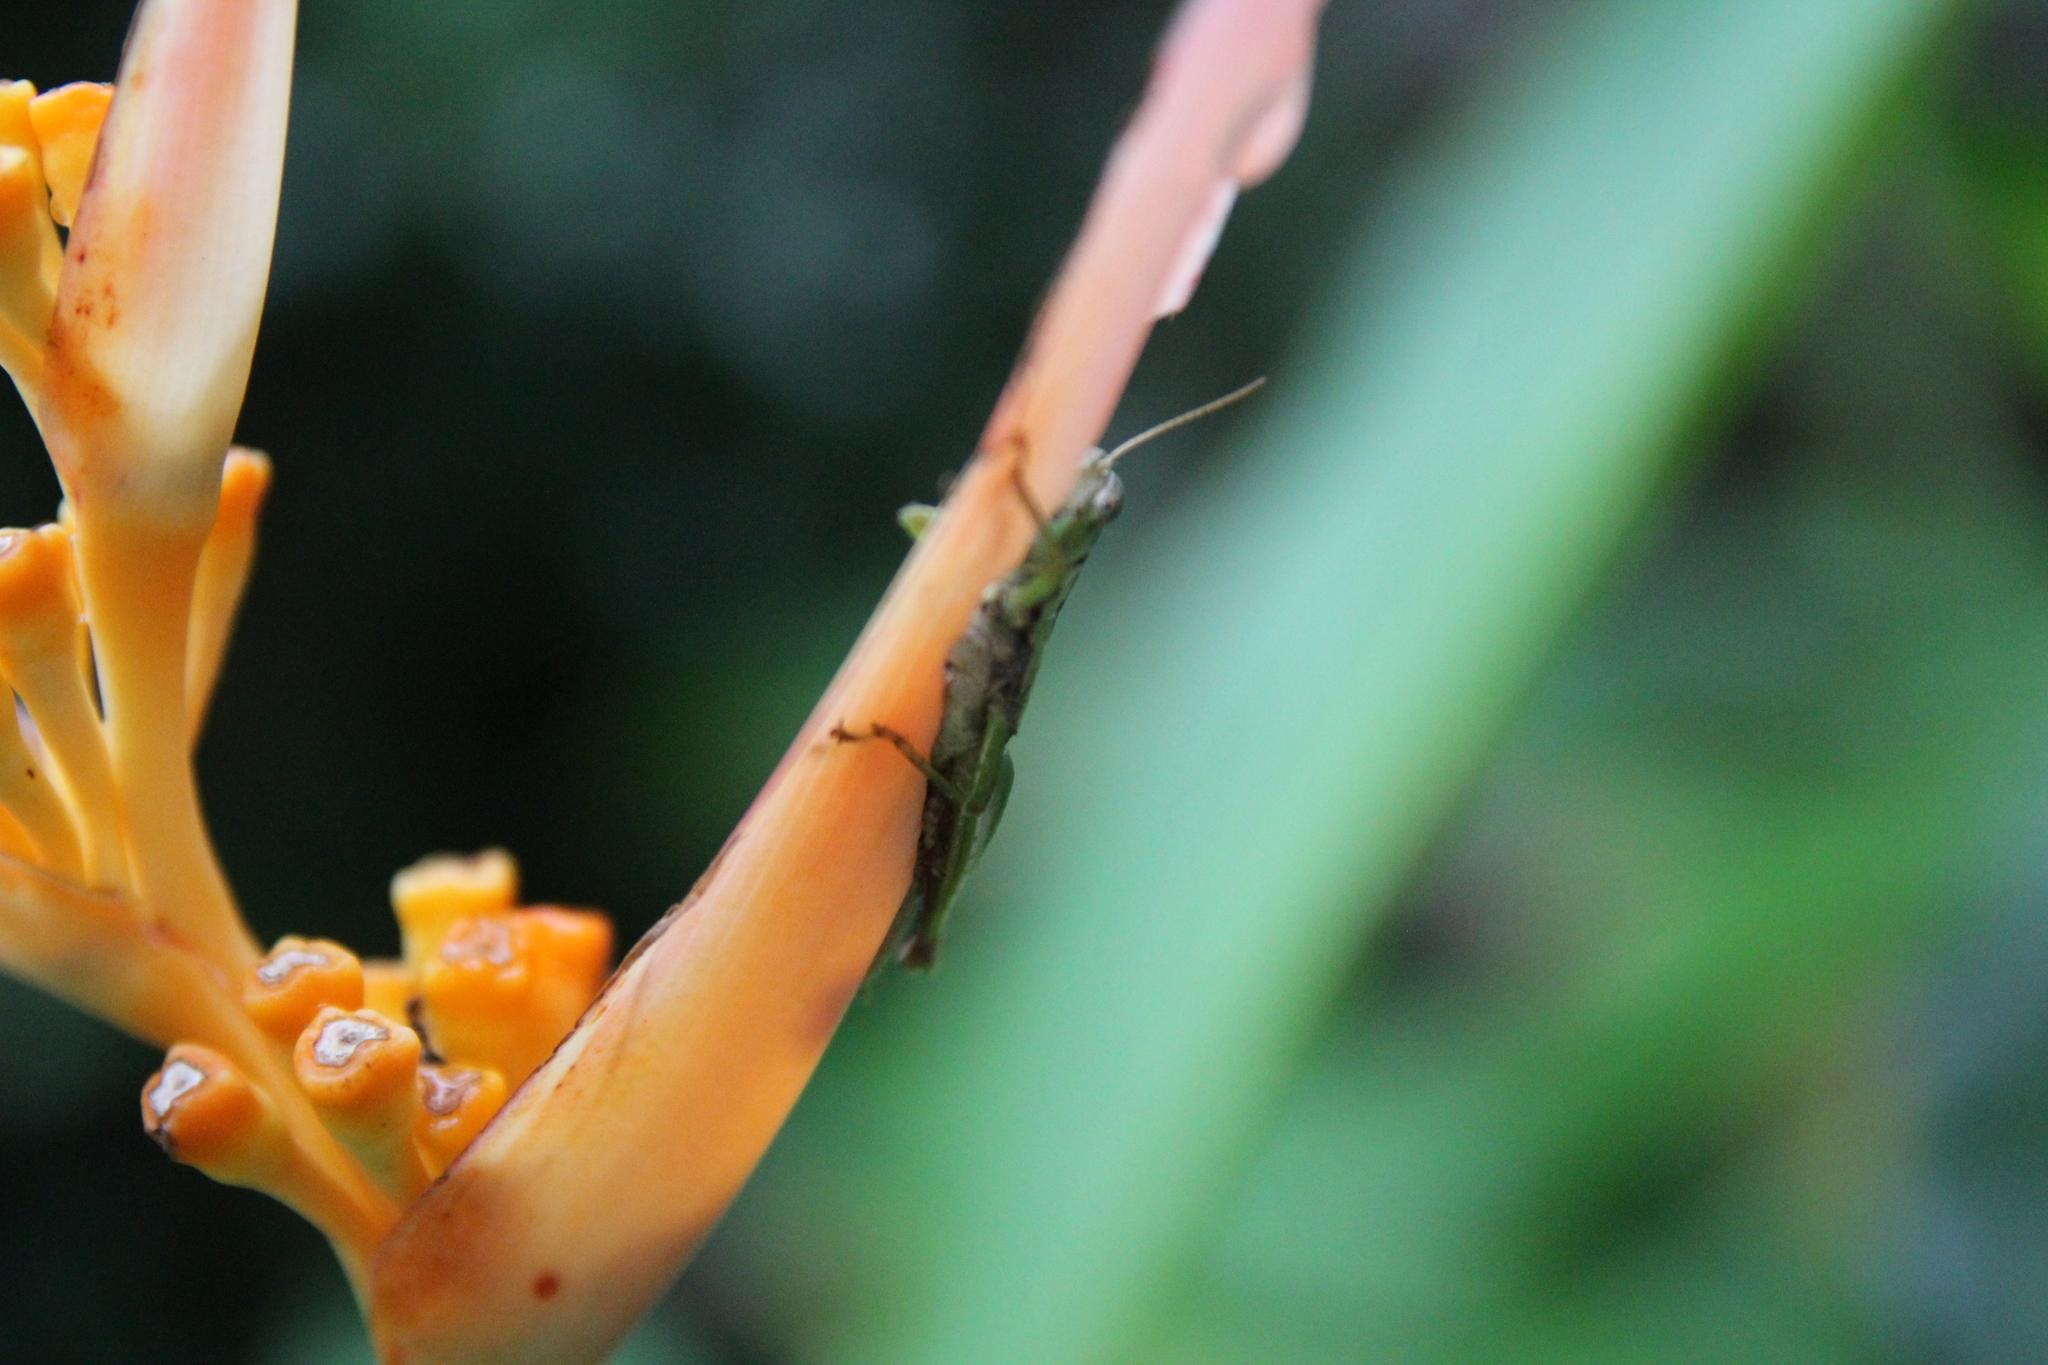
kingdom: Animalia
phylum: Arthropoda
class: Insecta
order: Orthoptera
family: Acrididae
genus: Pseudoxya
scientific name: Pseudoxya diminuta
